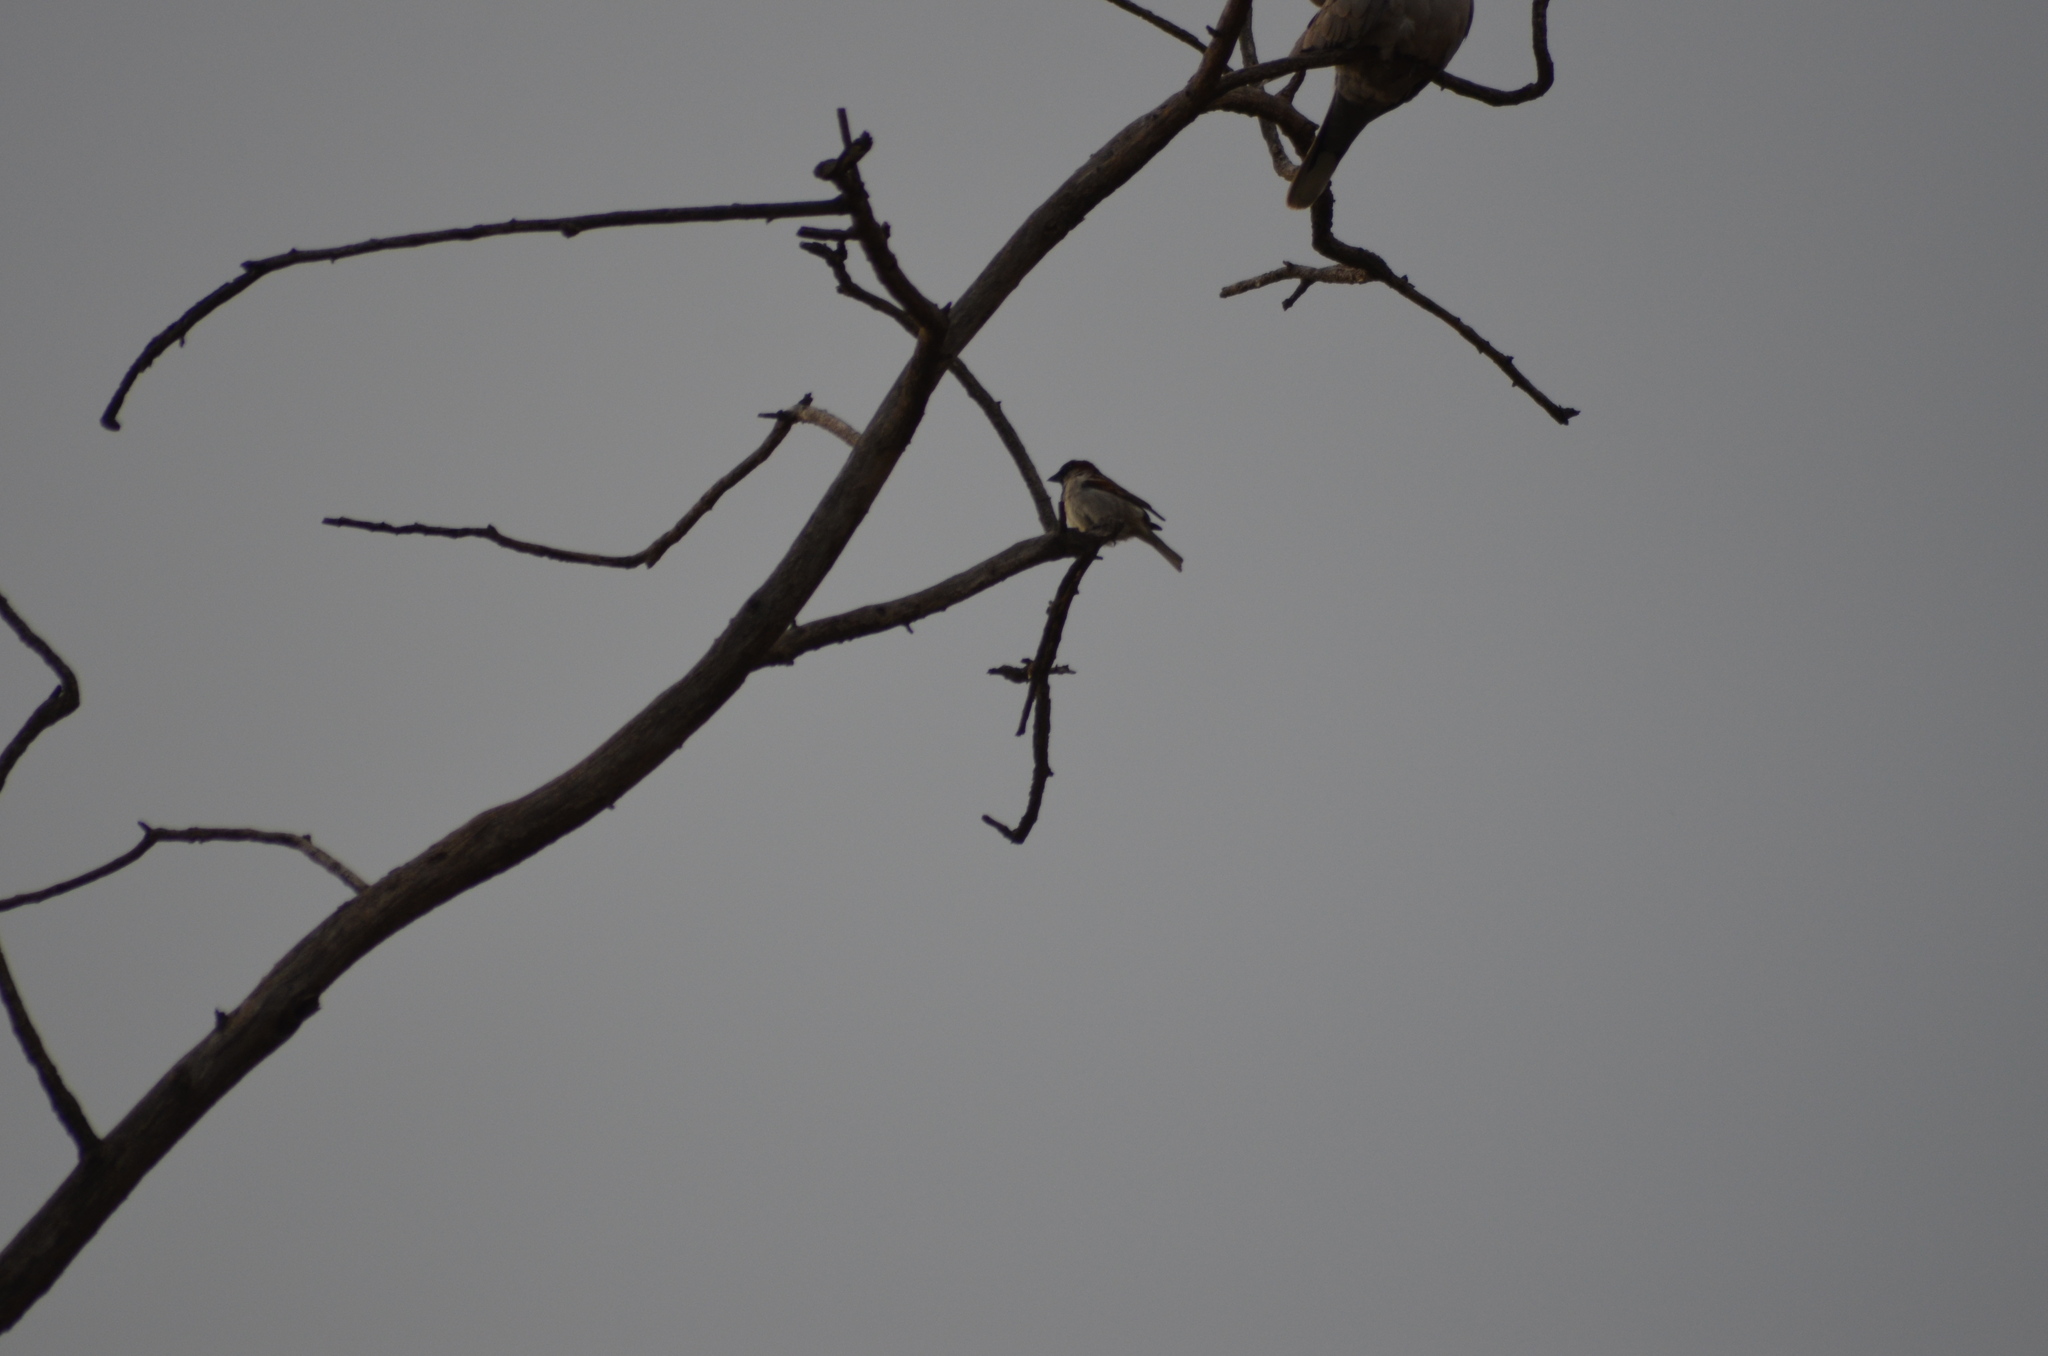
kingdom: Animalia
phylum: Chordata
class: Aves
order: Passeriformes
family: Passeridae
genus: Passer
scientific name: Passer domesticus
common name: House sparrow
